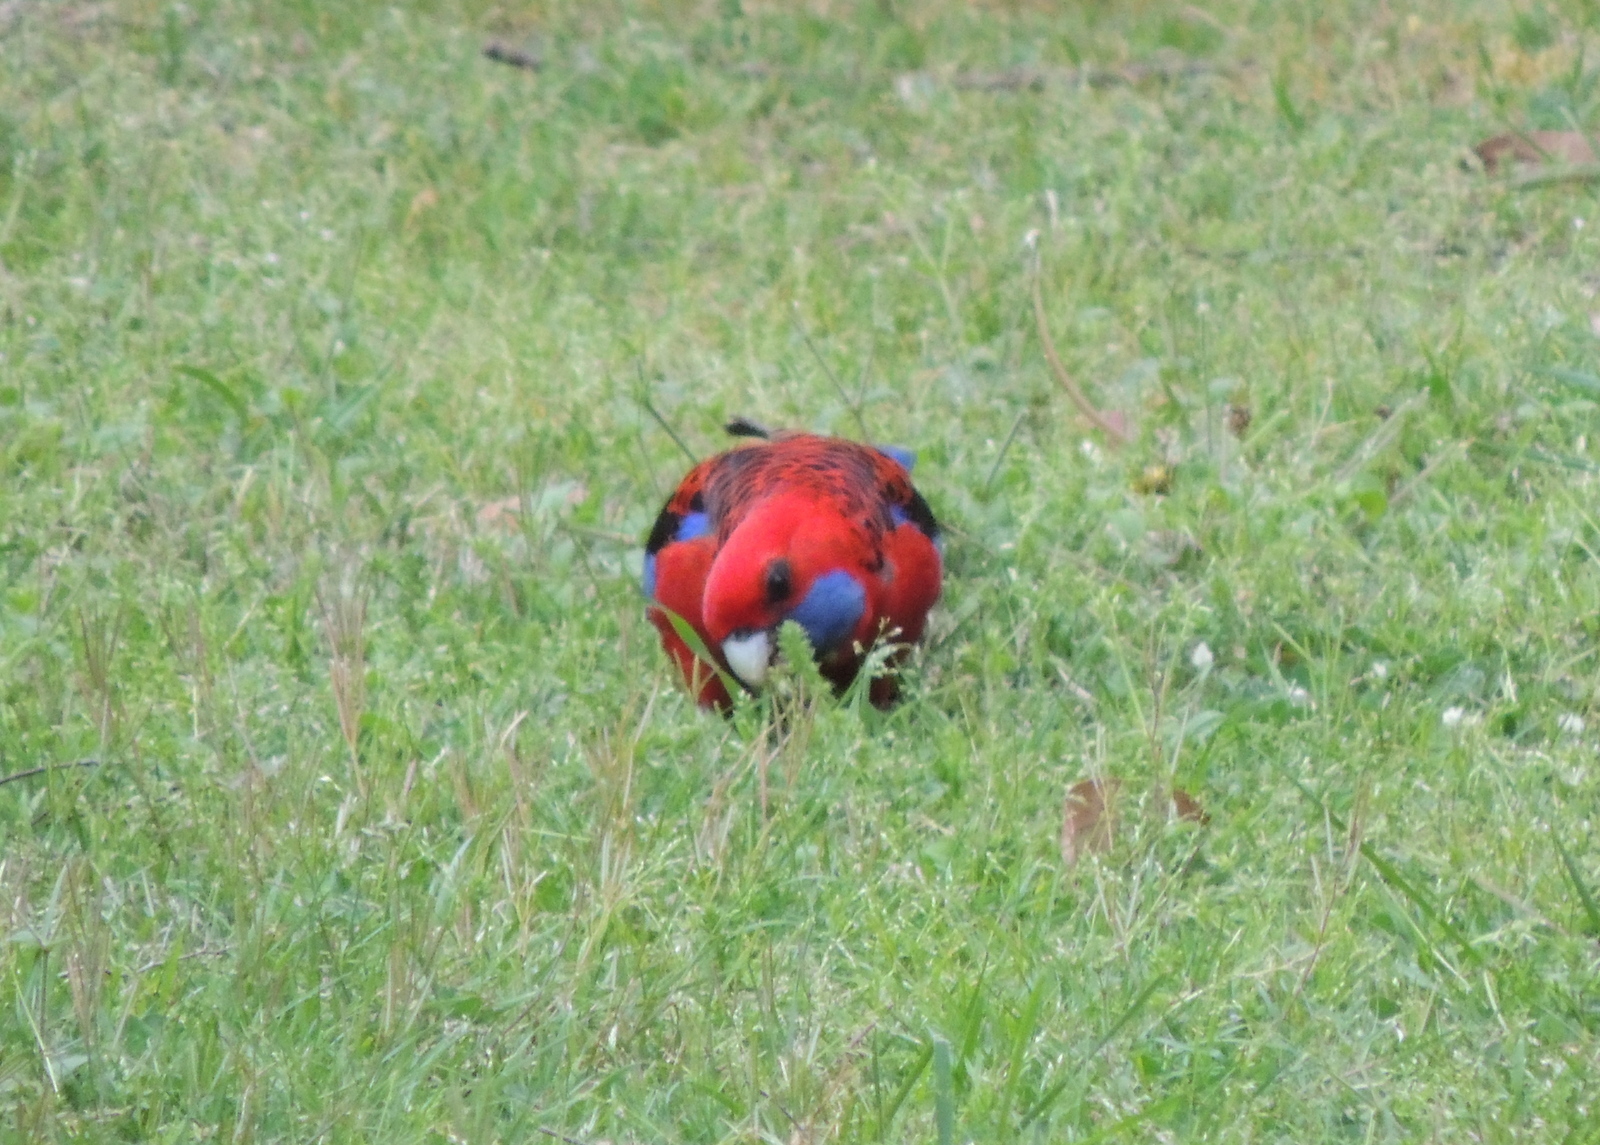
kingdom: Animalia
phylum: Chordata
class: Aves
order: Psittaciformes
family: Psittacidae
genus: Platycercus
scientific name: Platycercus elegans
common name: Crimson rosella
